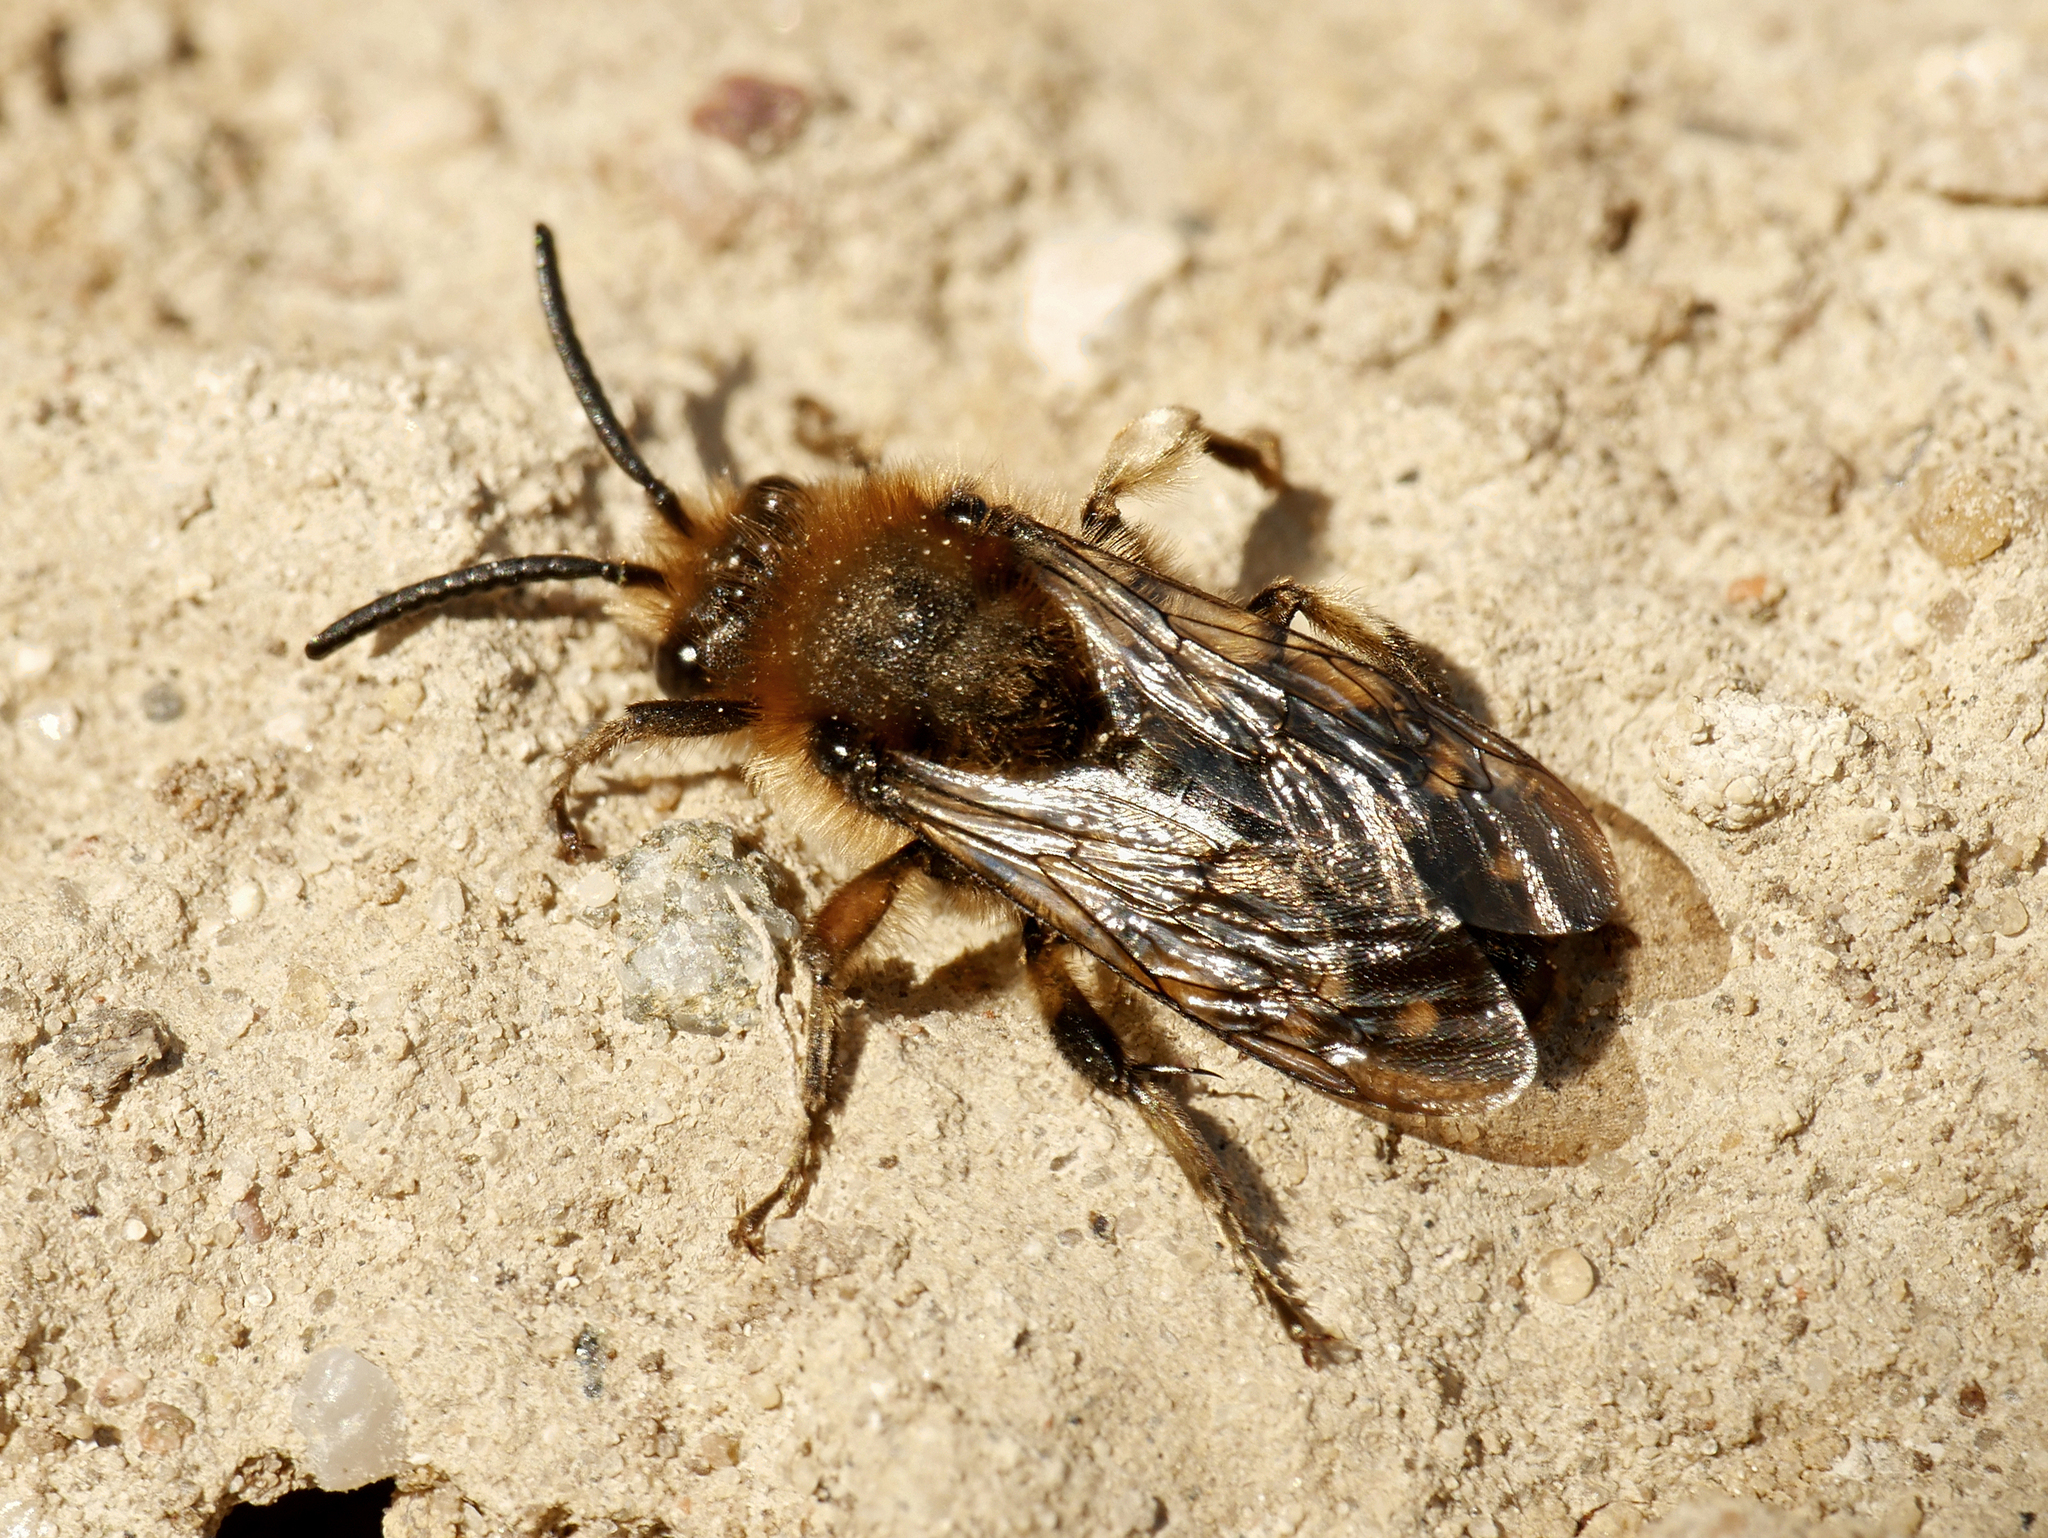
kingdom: Animalia
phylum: Arthropoda
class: Insecta
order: Hymenoptera
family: Apidae
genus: Melecta
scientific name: Melecta albifrons
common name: Common mourning bee
